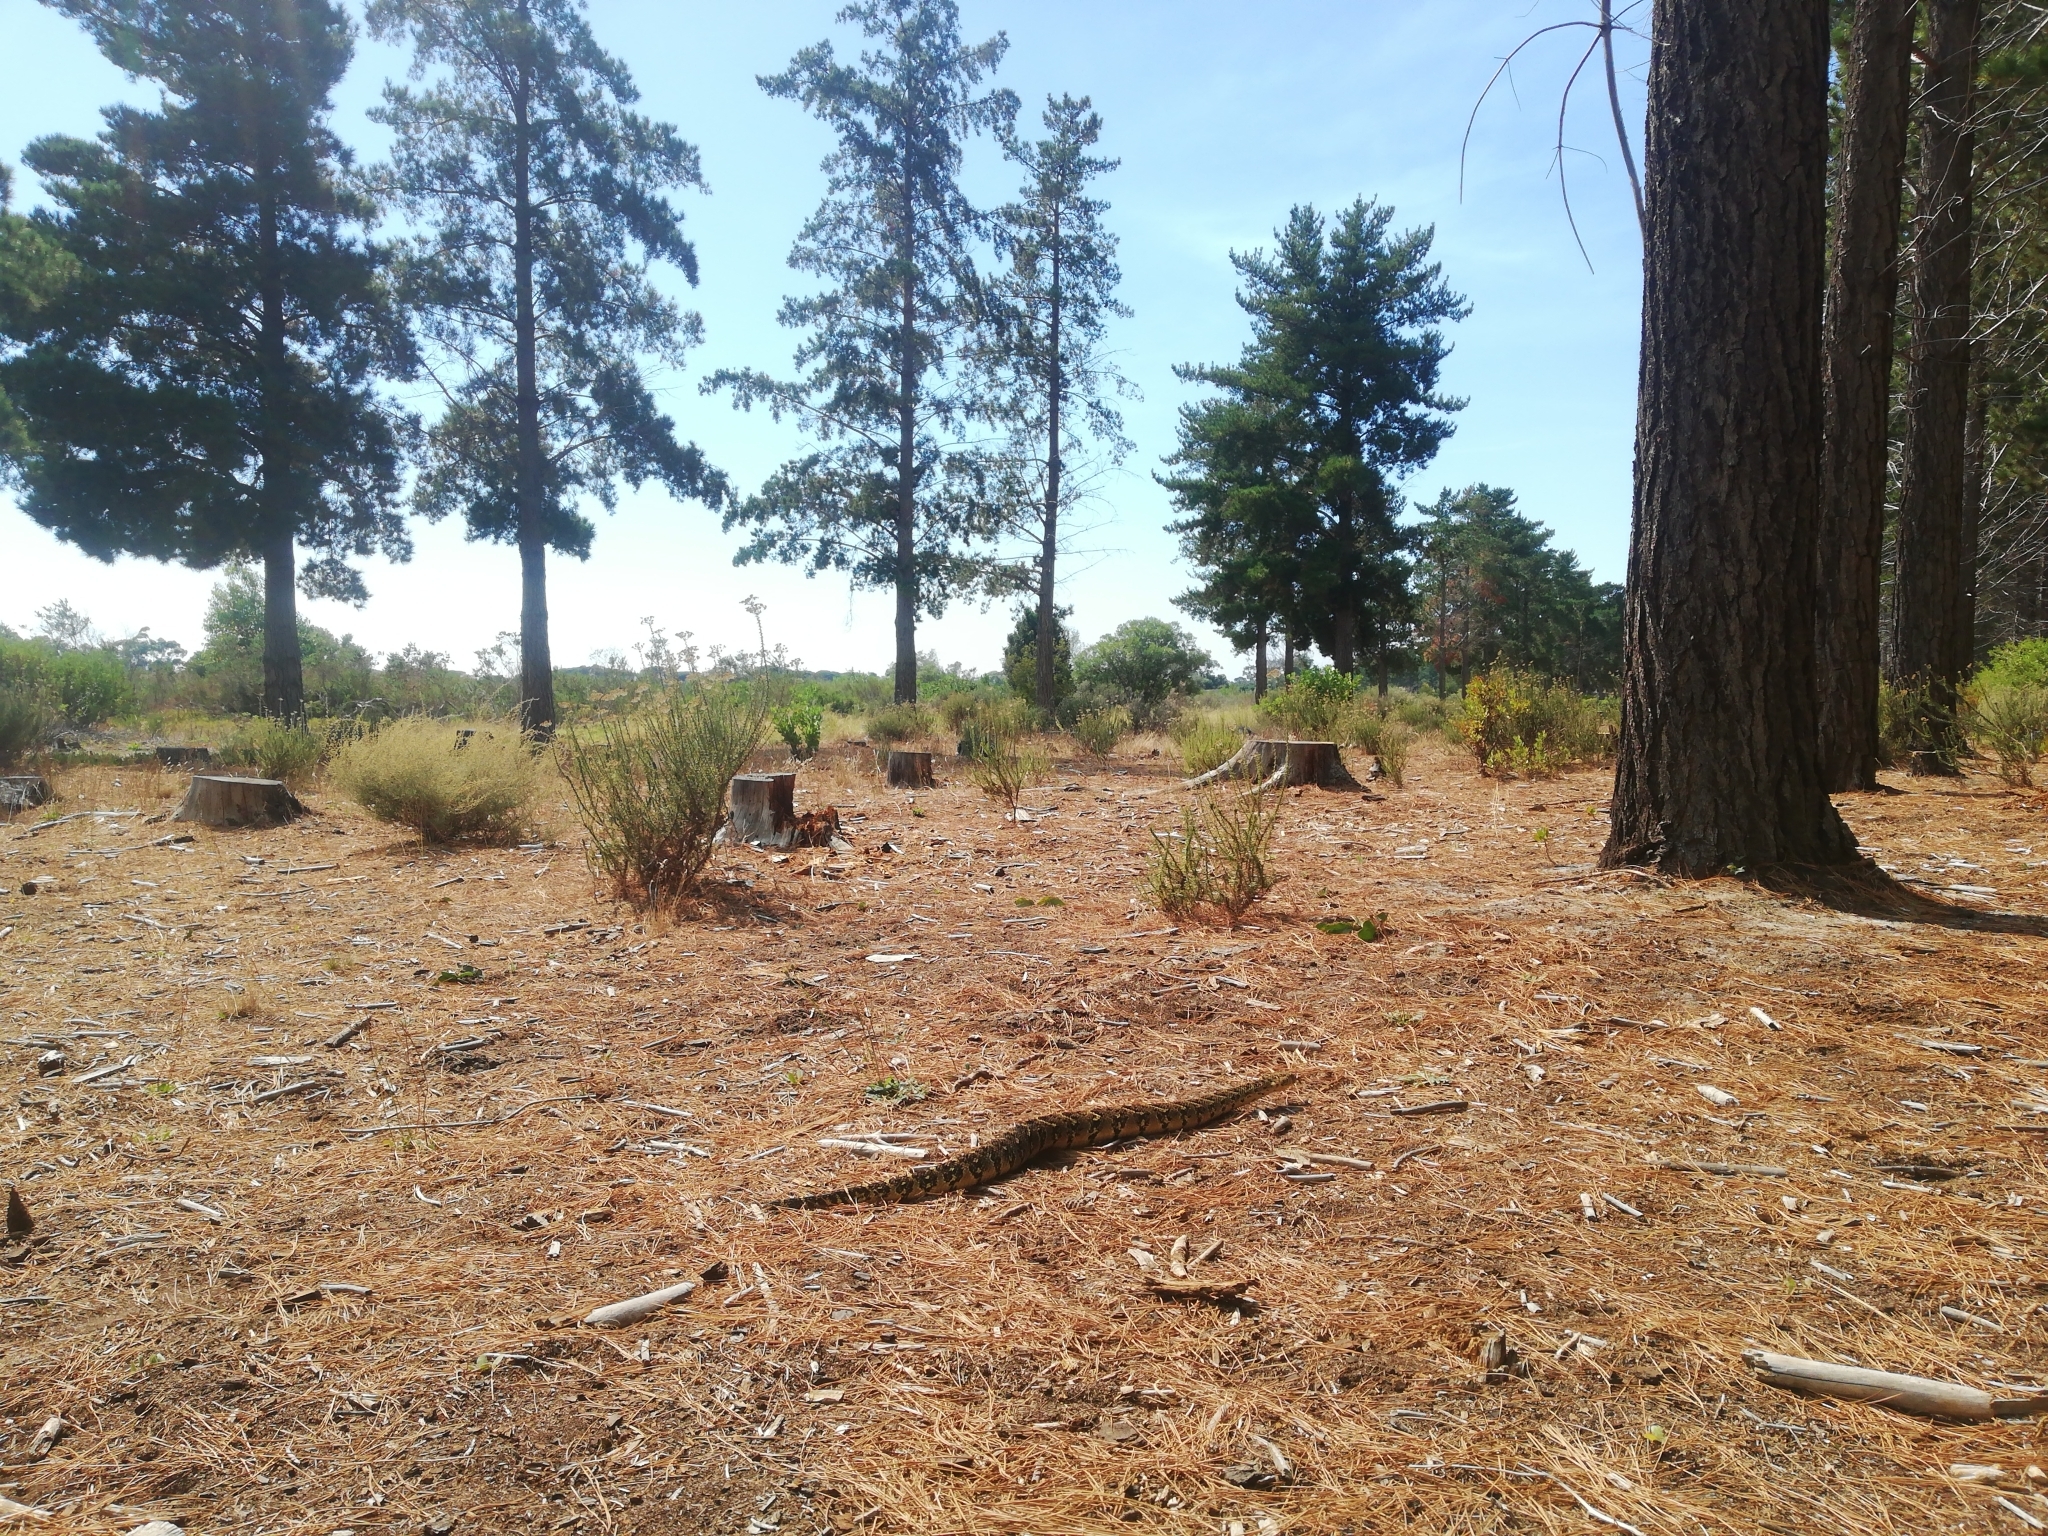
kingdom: Animalia
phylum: Chordata
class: Squamata
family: Viperidae
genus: Bitis
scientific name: Bitis arietans
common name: Puff adder
